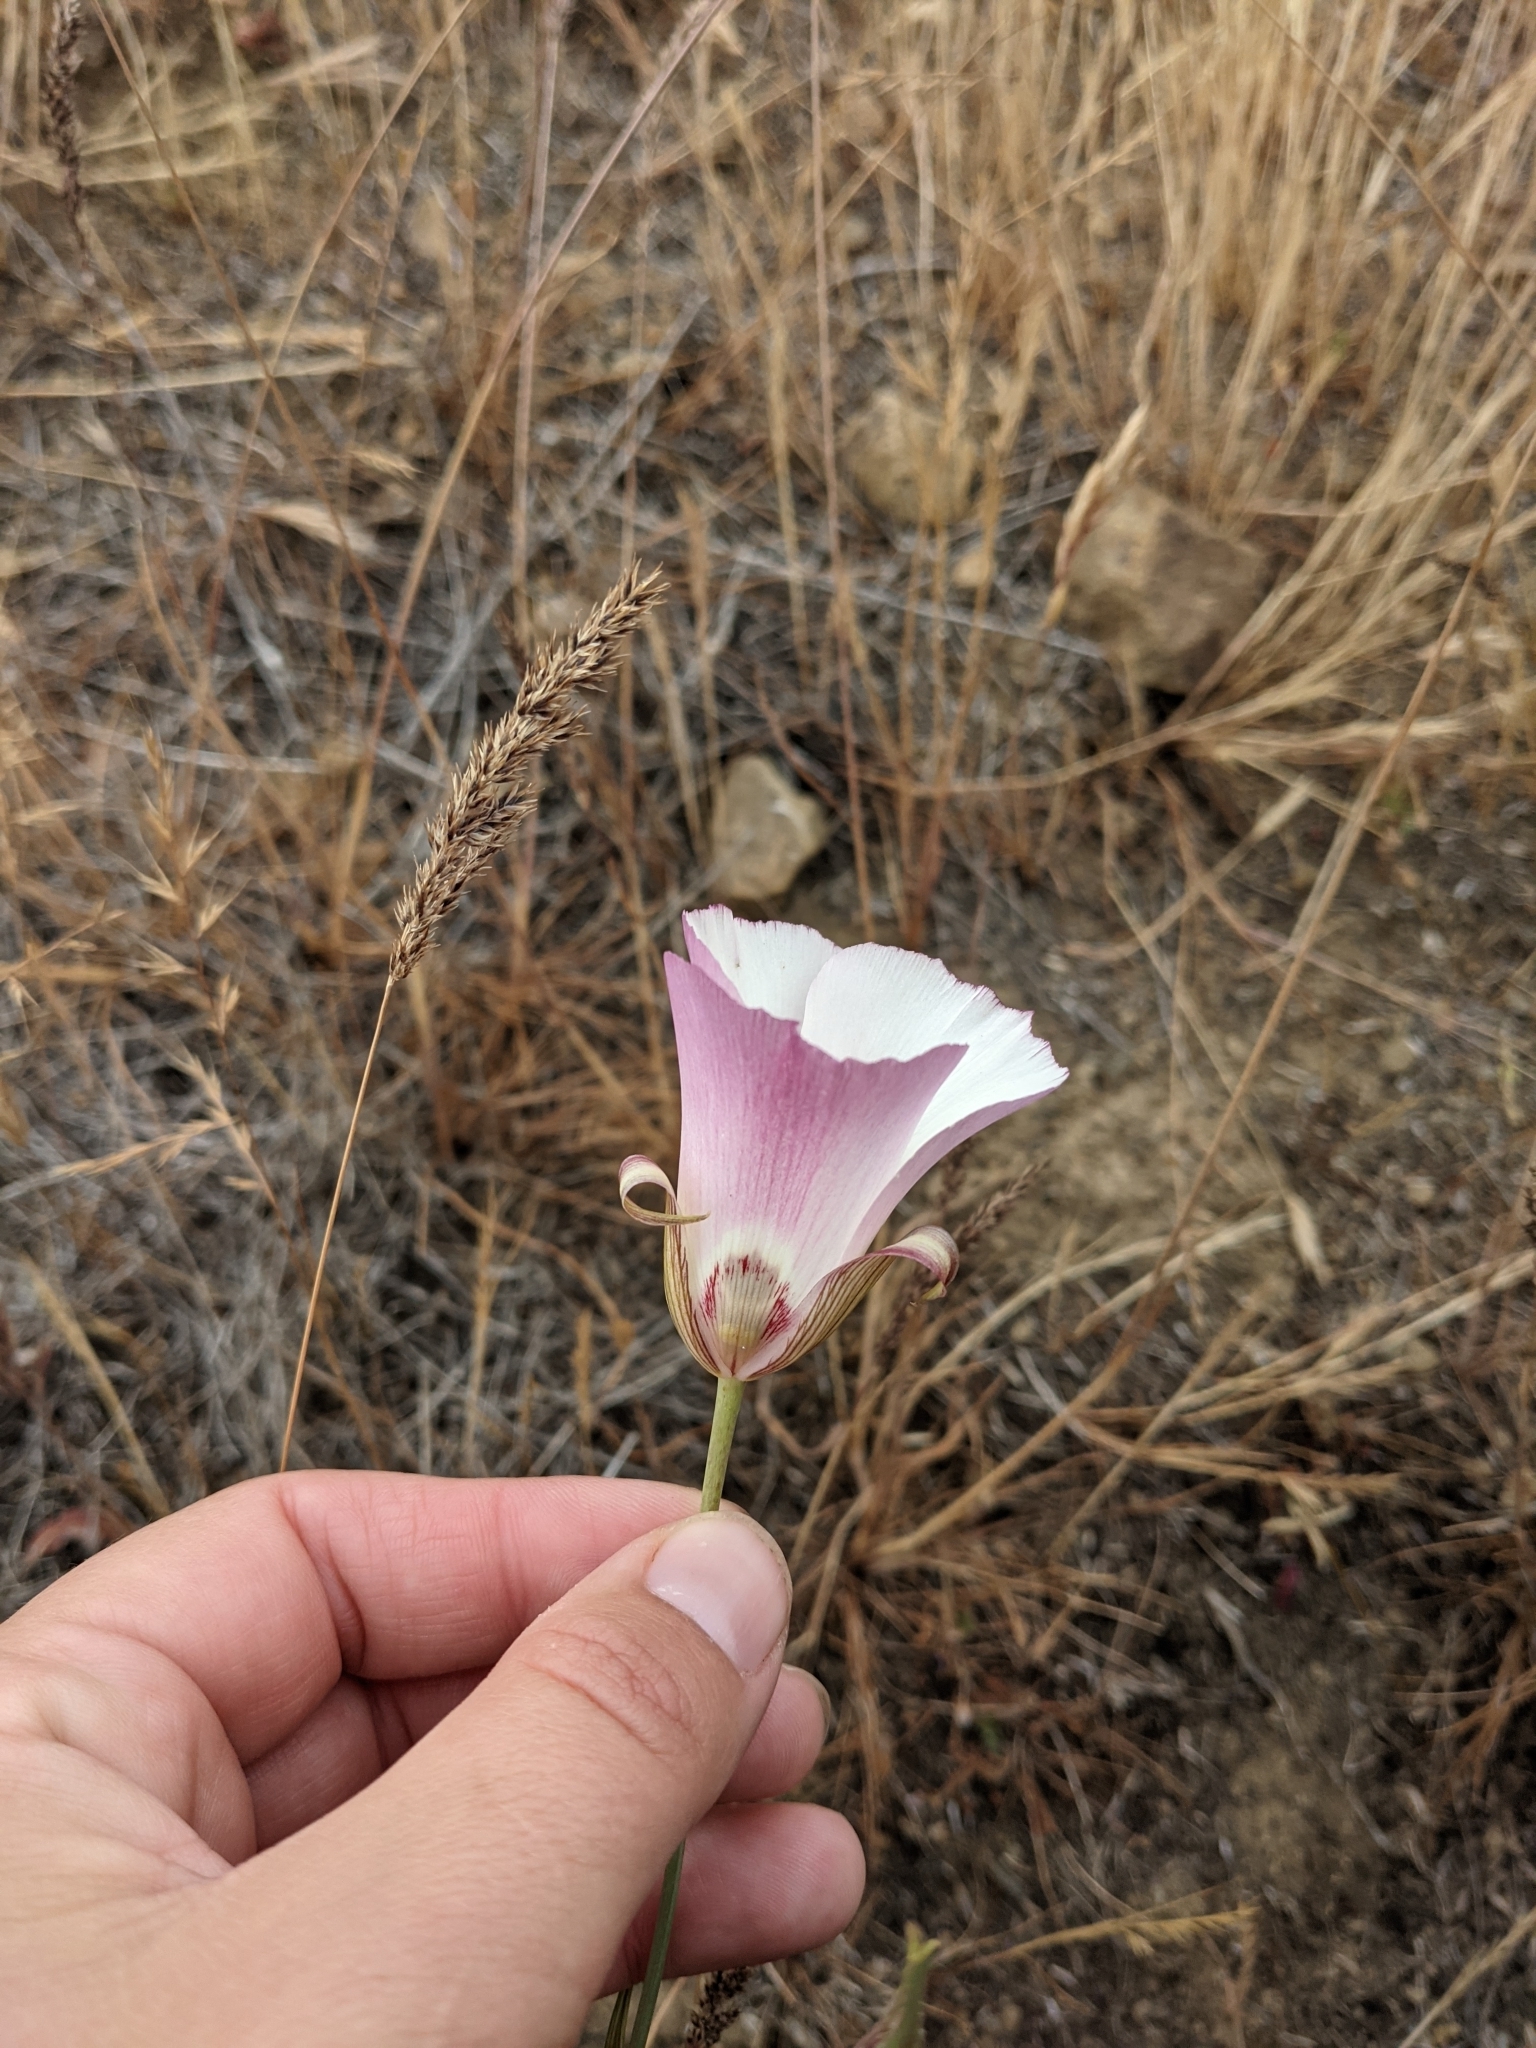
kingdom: Plantae
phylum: Tracheophyta
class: Liliopsida
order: Liliales
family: Liliaceae
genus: Calochortus
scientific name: Calochortus simulans
